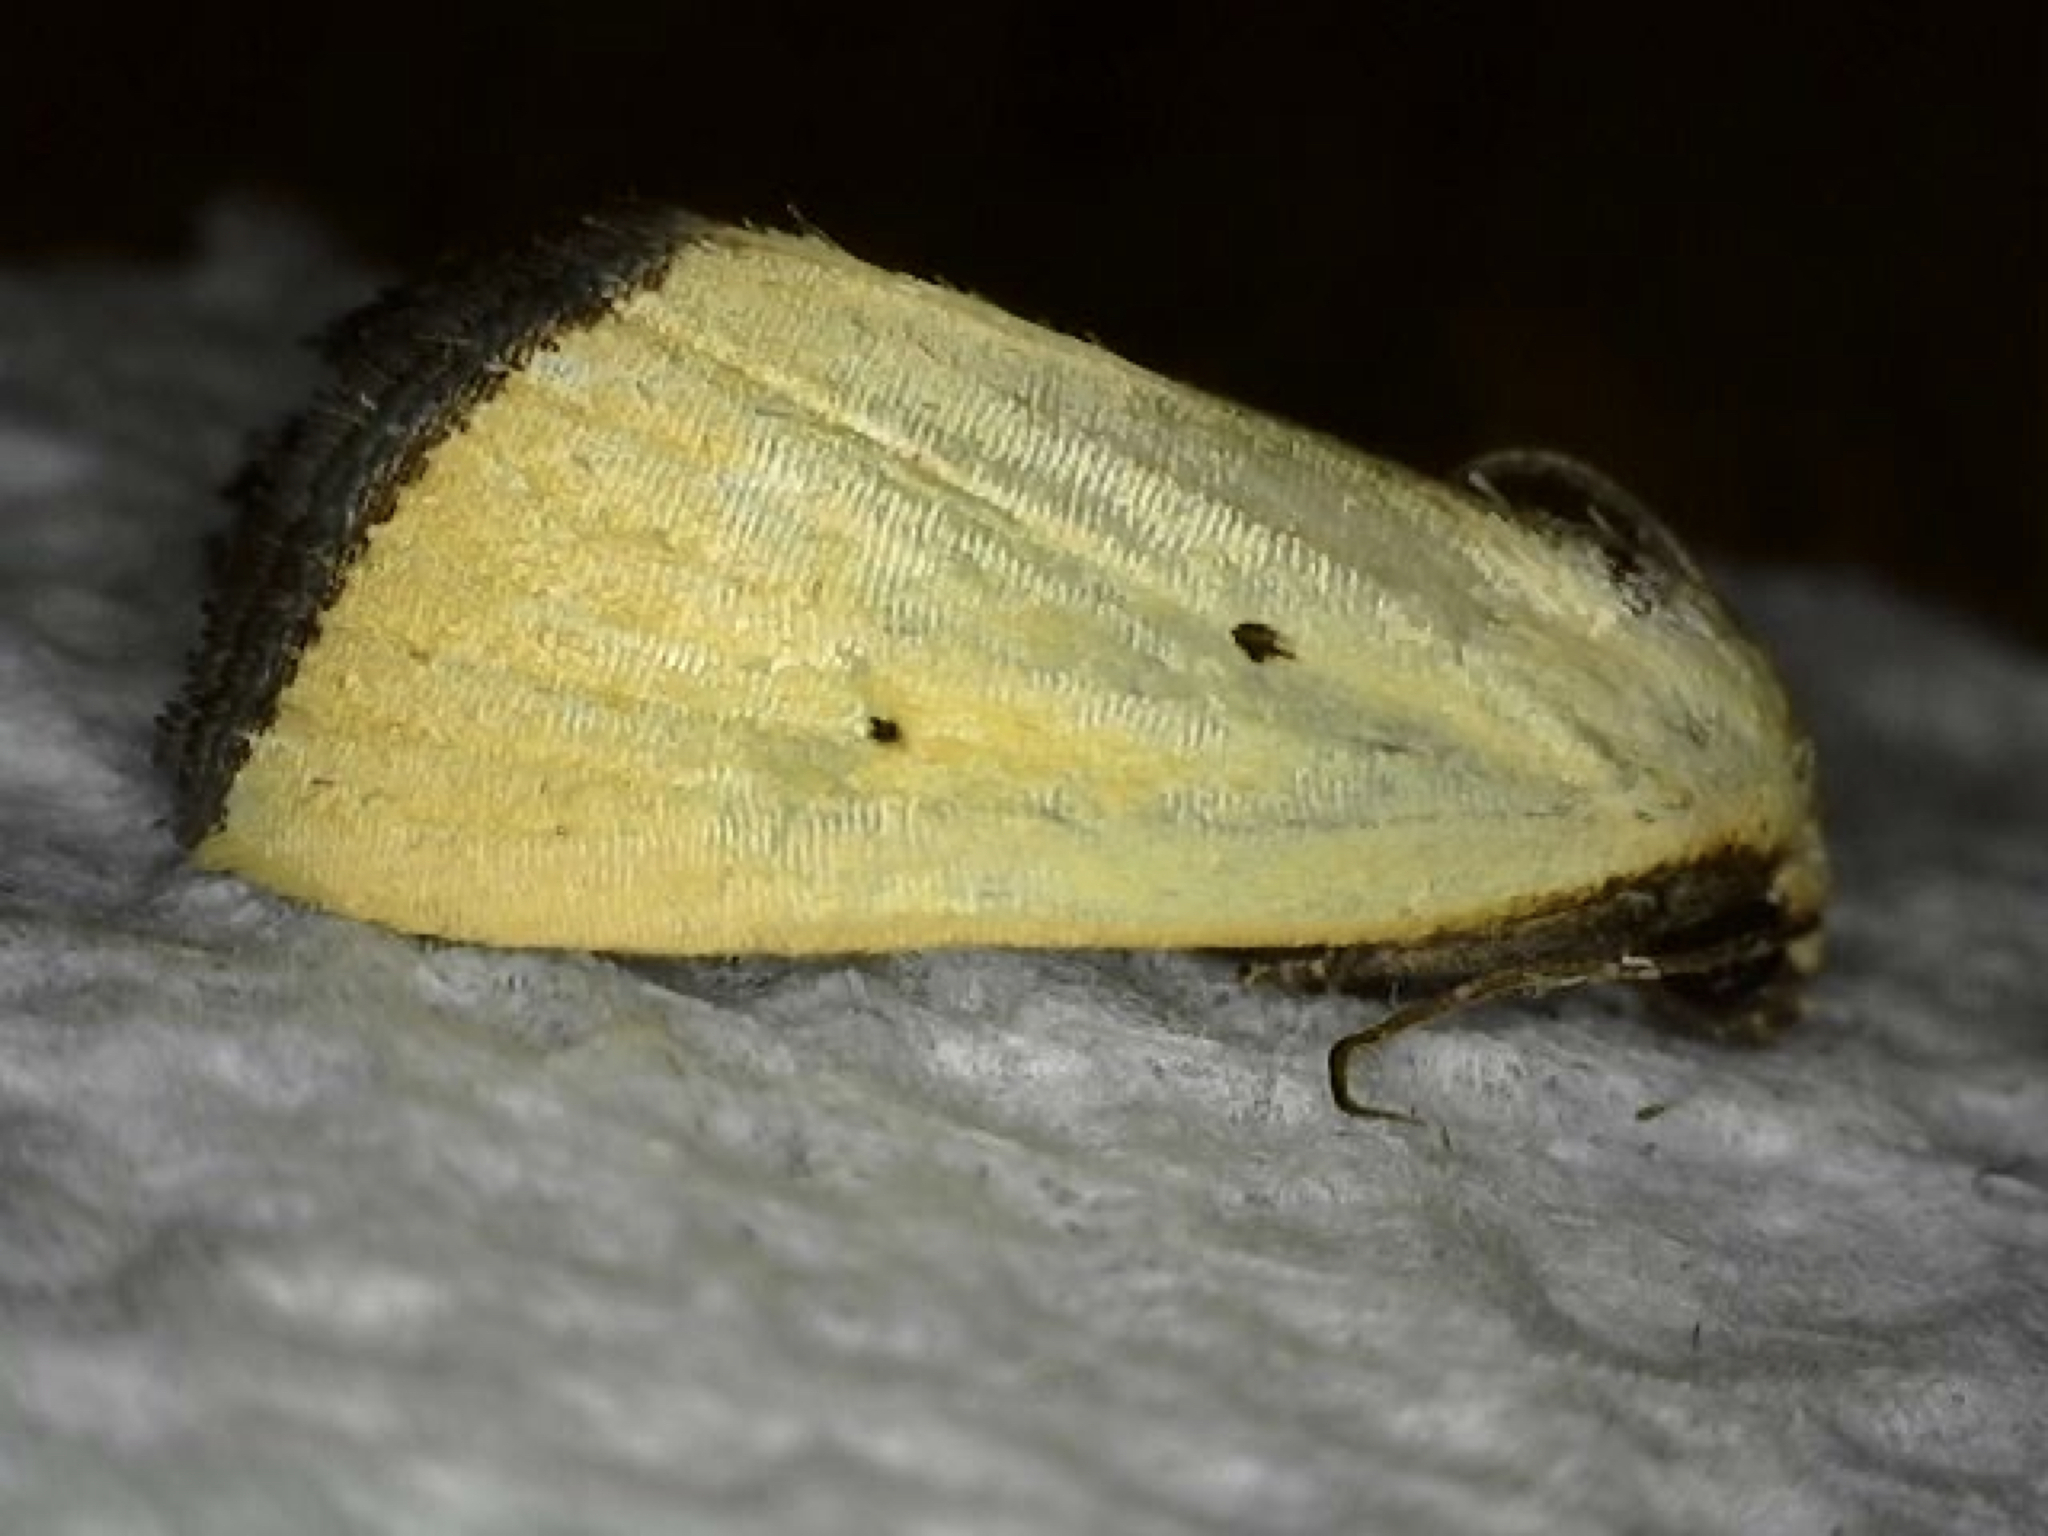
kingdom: Animalia
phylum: Arthropoda
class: Insecta
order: Lepidoptera
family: Noctuidae
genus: Marimatha
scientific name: Marimatha nigrofimbria
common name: Black-bordered lemon moth
